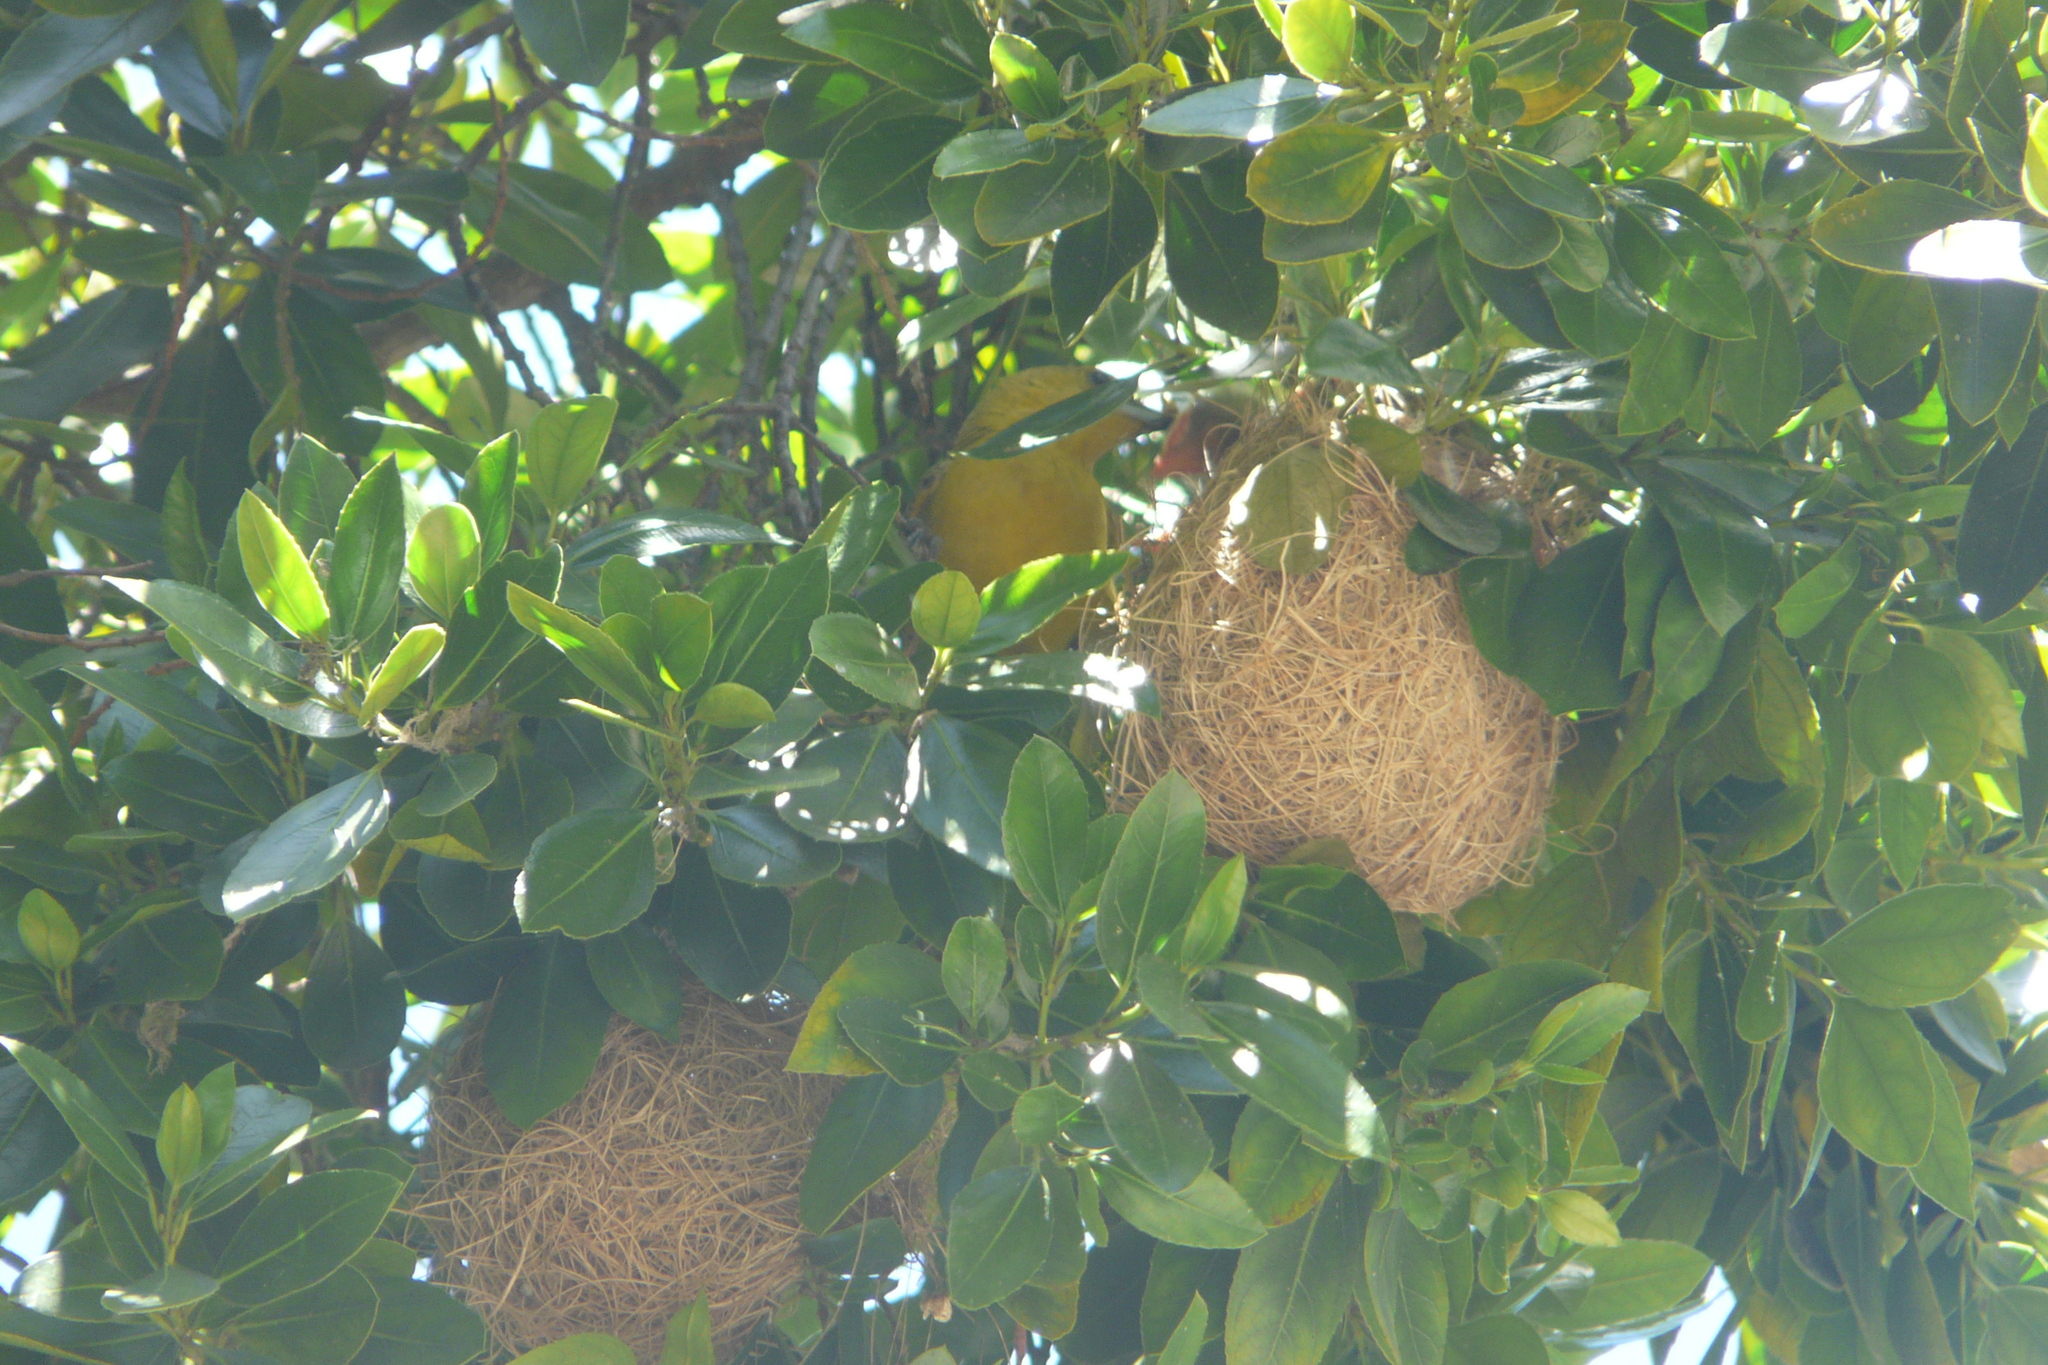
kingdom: Animalia
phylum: Chordata
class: Aves
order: Passeriformes
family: Icteridae
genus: Icterus
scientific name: Icterus cucullatus
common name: Hooded oriole
